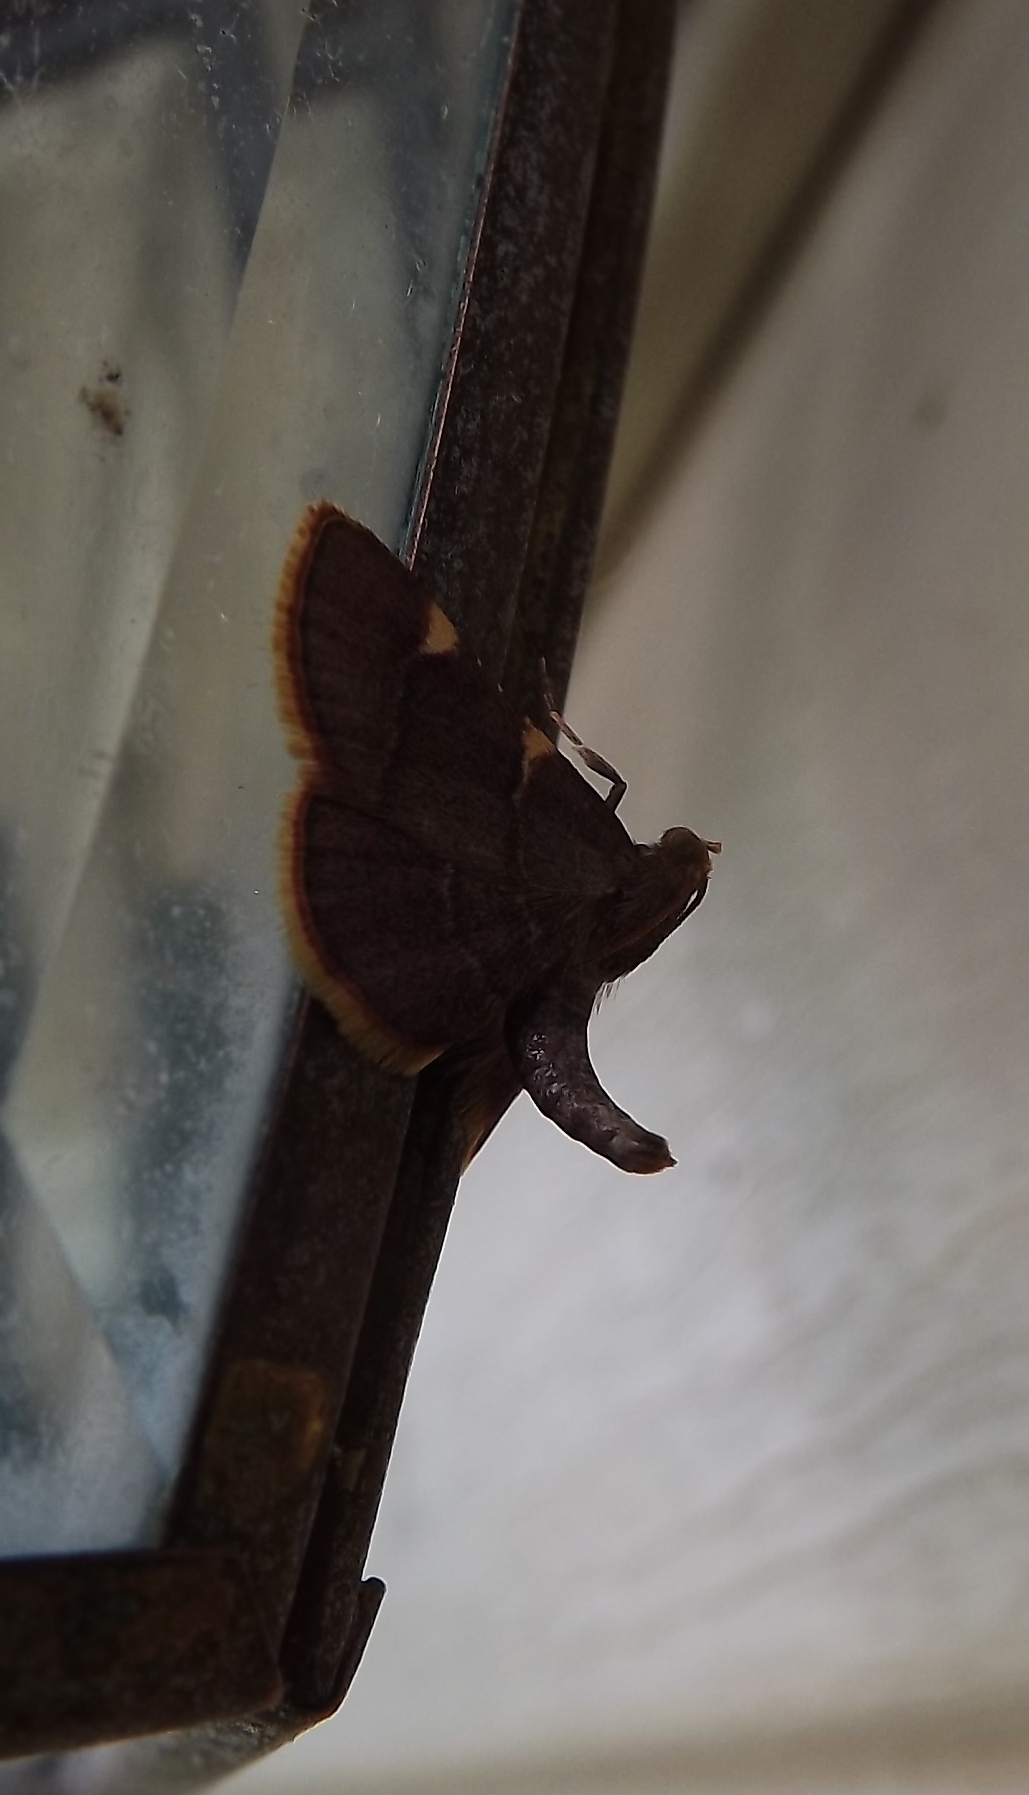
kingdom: Animalia
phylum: Arthropoda
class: Insecta
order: Lepidoptera
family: Pyralidae
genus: Hypsopygia
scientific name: Hypsopygia olinalis
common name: Yellow-fringed dolichomia moth
